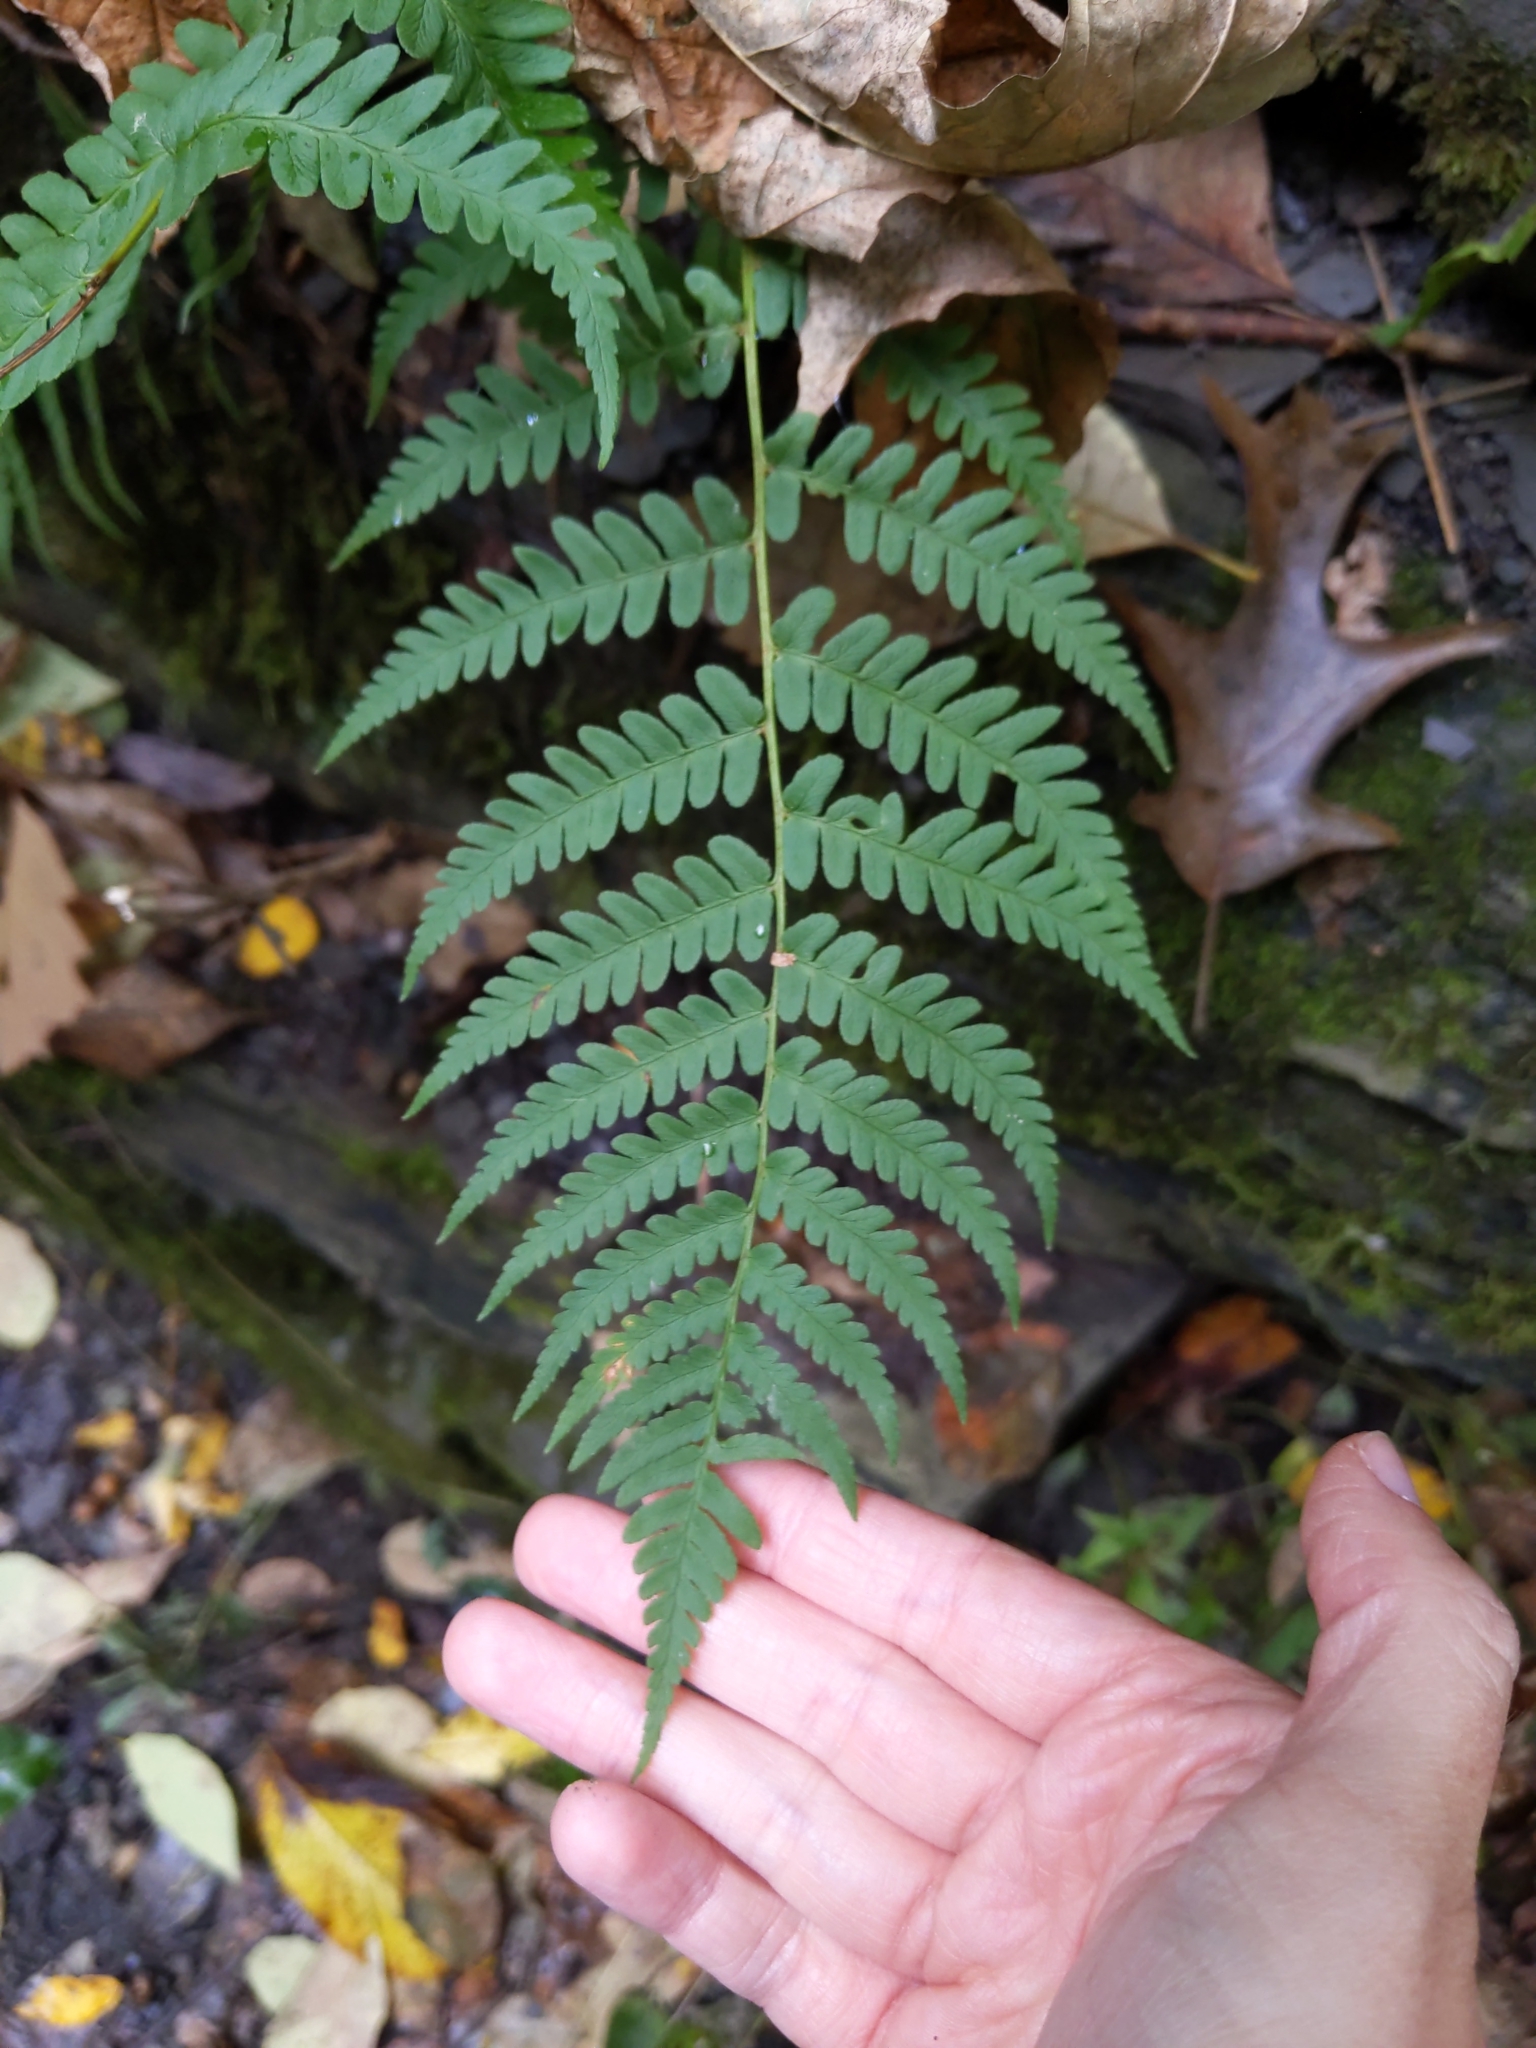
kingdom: Plantae
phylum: Tracheophyta
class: Polypodiopsida
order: Polypodiales
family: Dryopteridaceae
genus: Dryopteris
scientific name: Dryopteris marginalis
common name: Marginal wood fern
